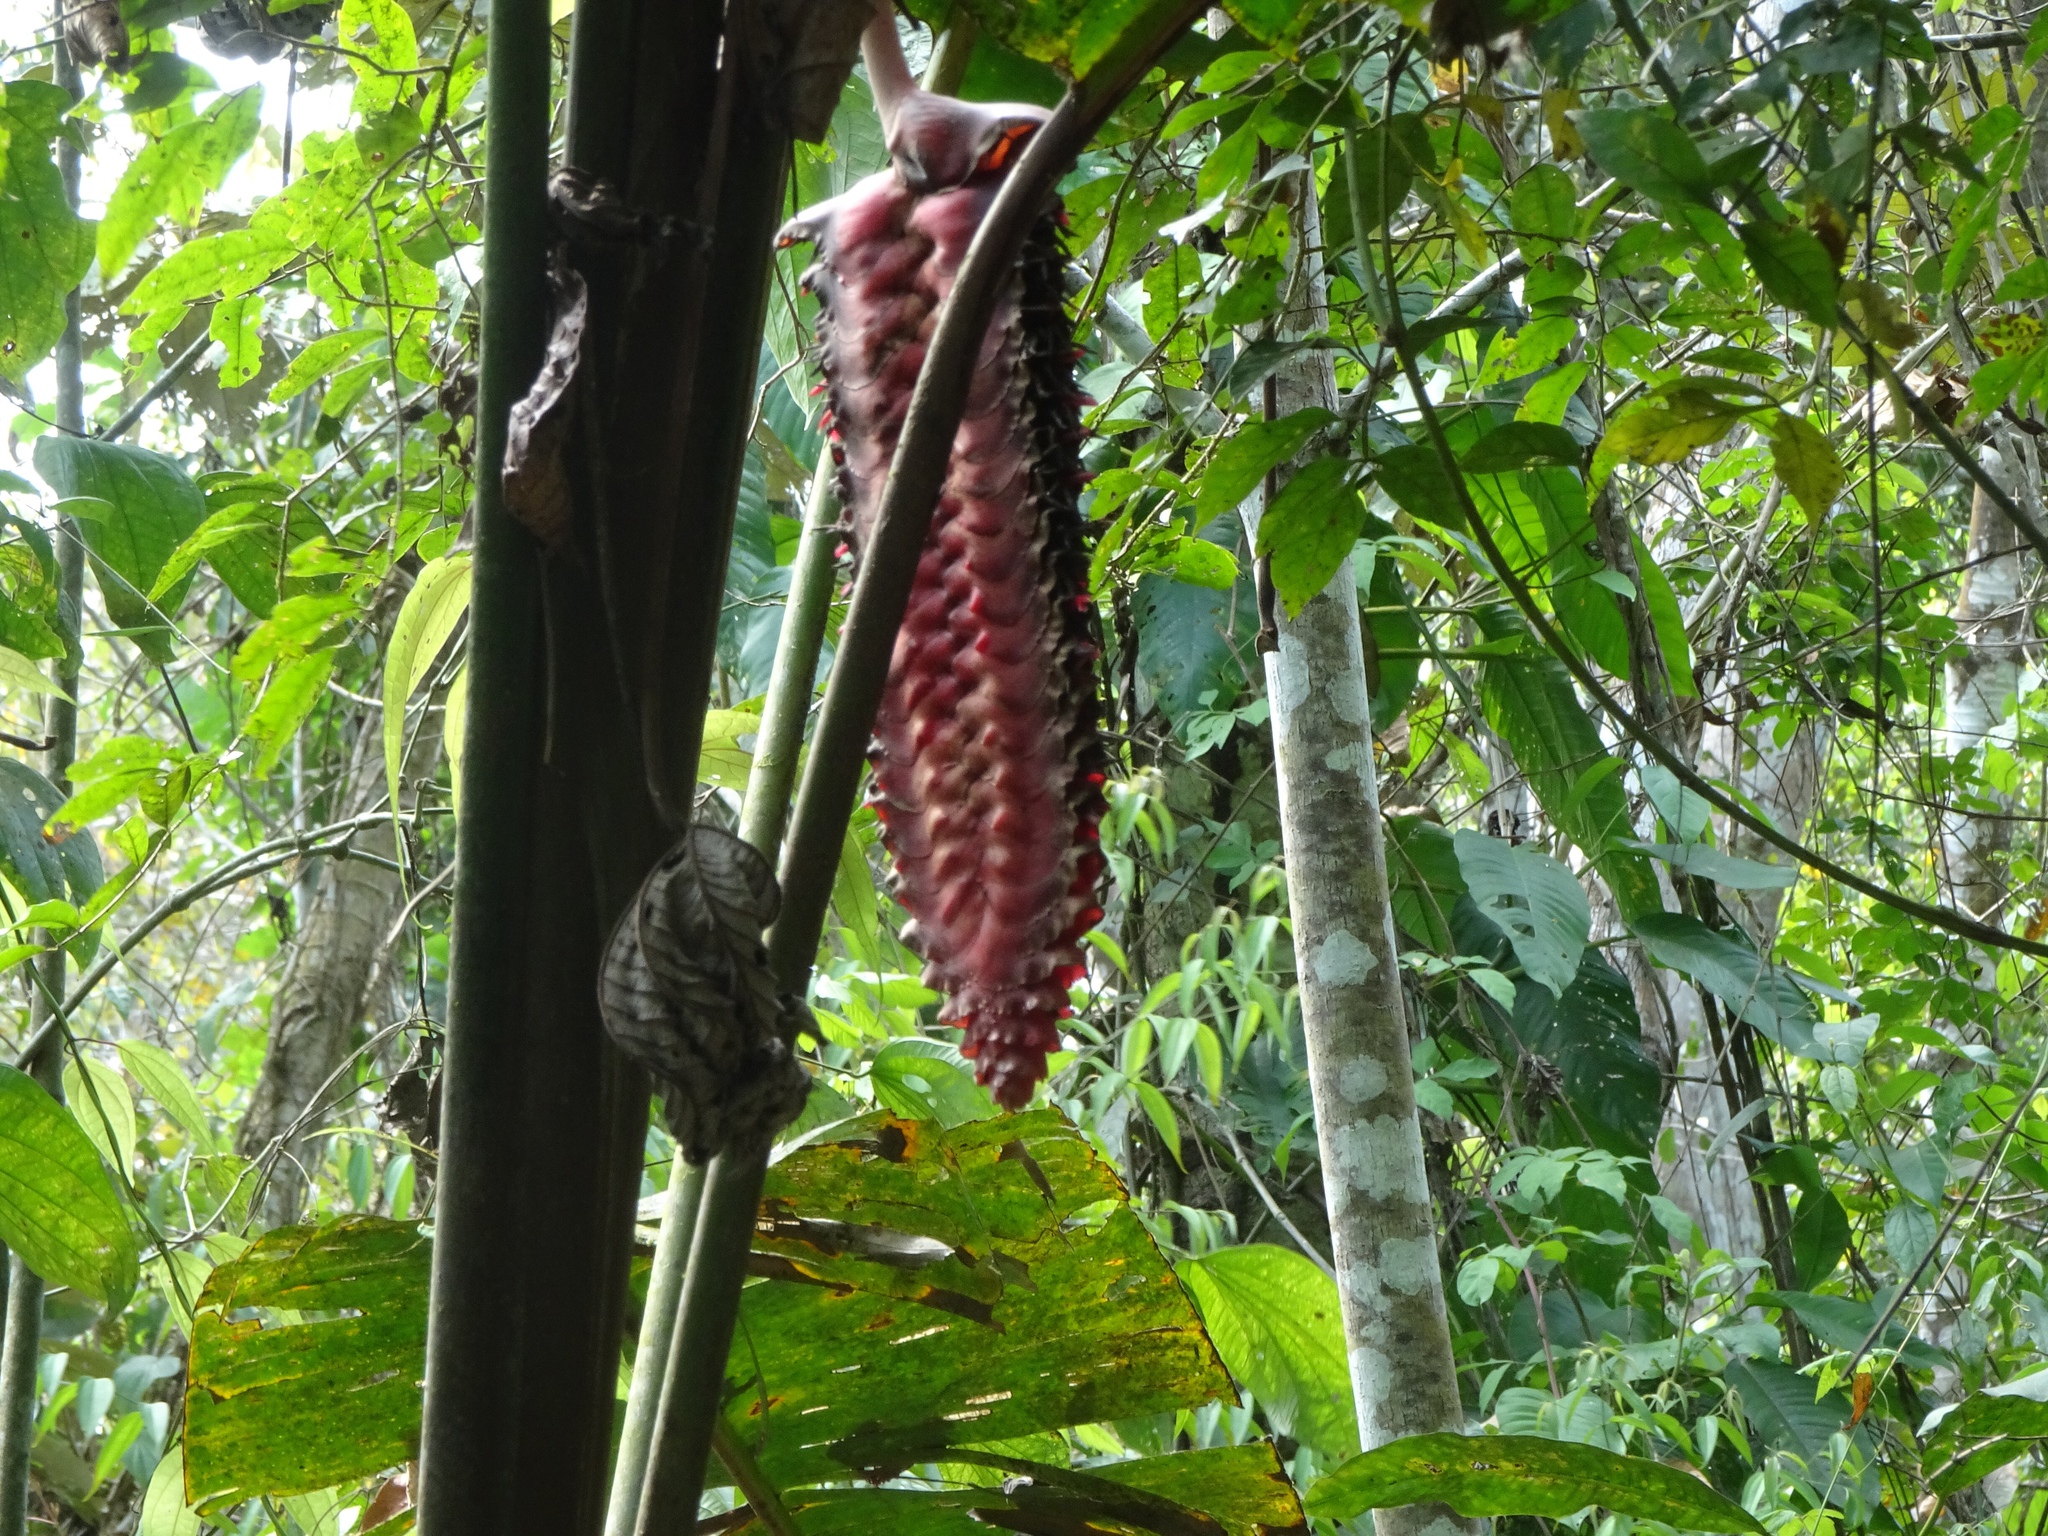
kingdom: Plantae
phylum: Tracheophyta
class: Liliopsida
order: Zingiberales
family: Heliconiaceae
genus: Heliconia
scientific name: Heliconia mariae
